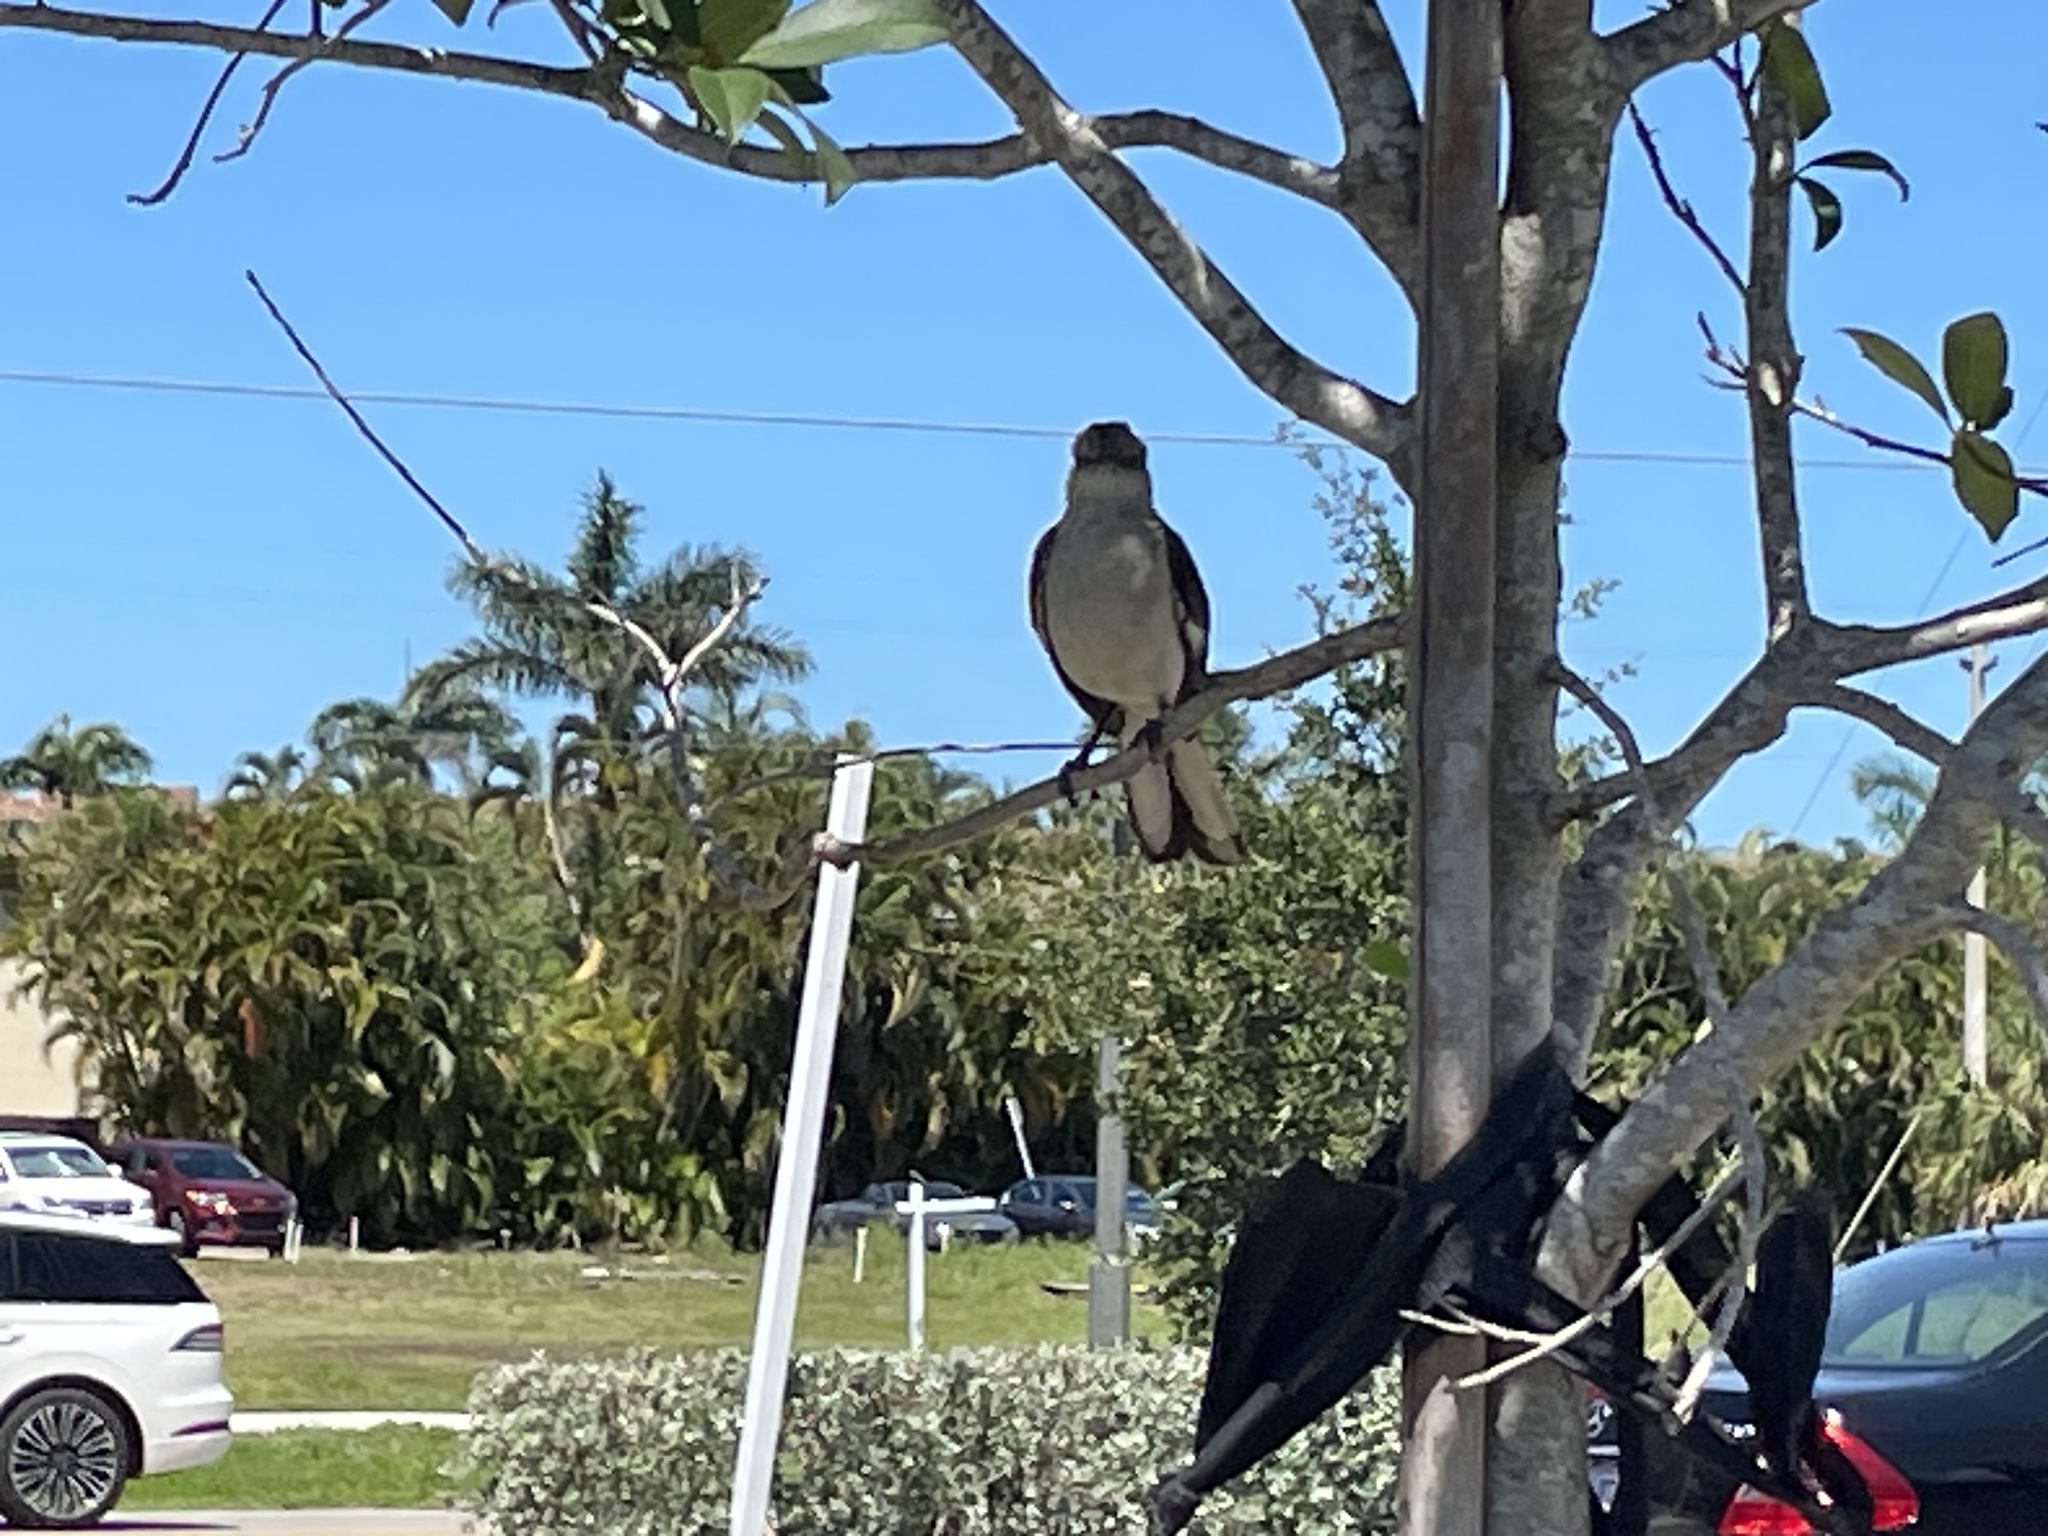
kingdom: Animalia
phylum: Chordata
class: Aves
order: Passeriformes
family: Mimidae
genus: Mimus
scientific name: Mimus polyglottos
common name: Northern mockingbird
